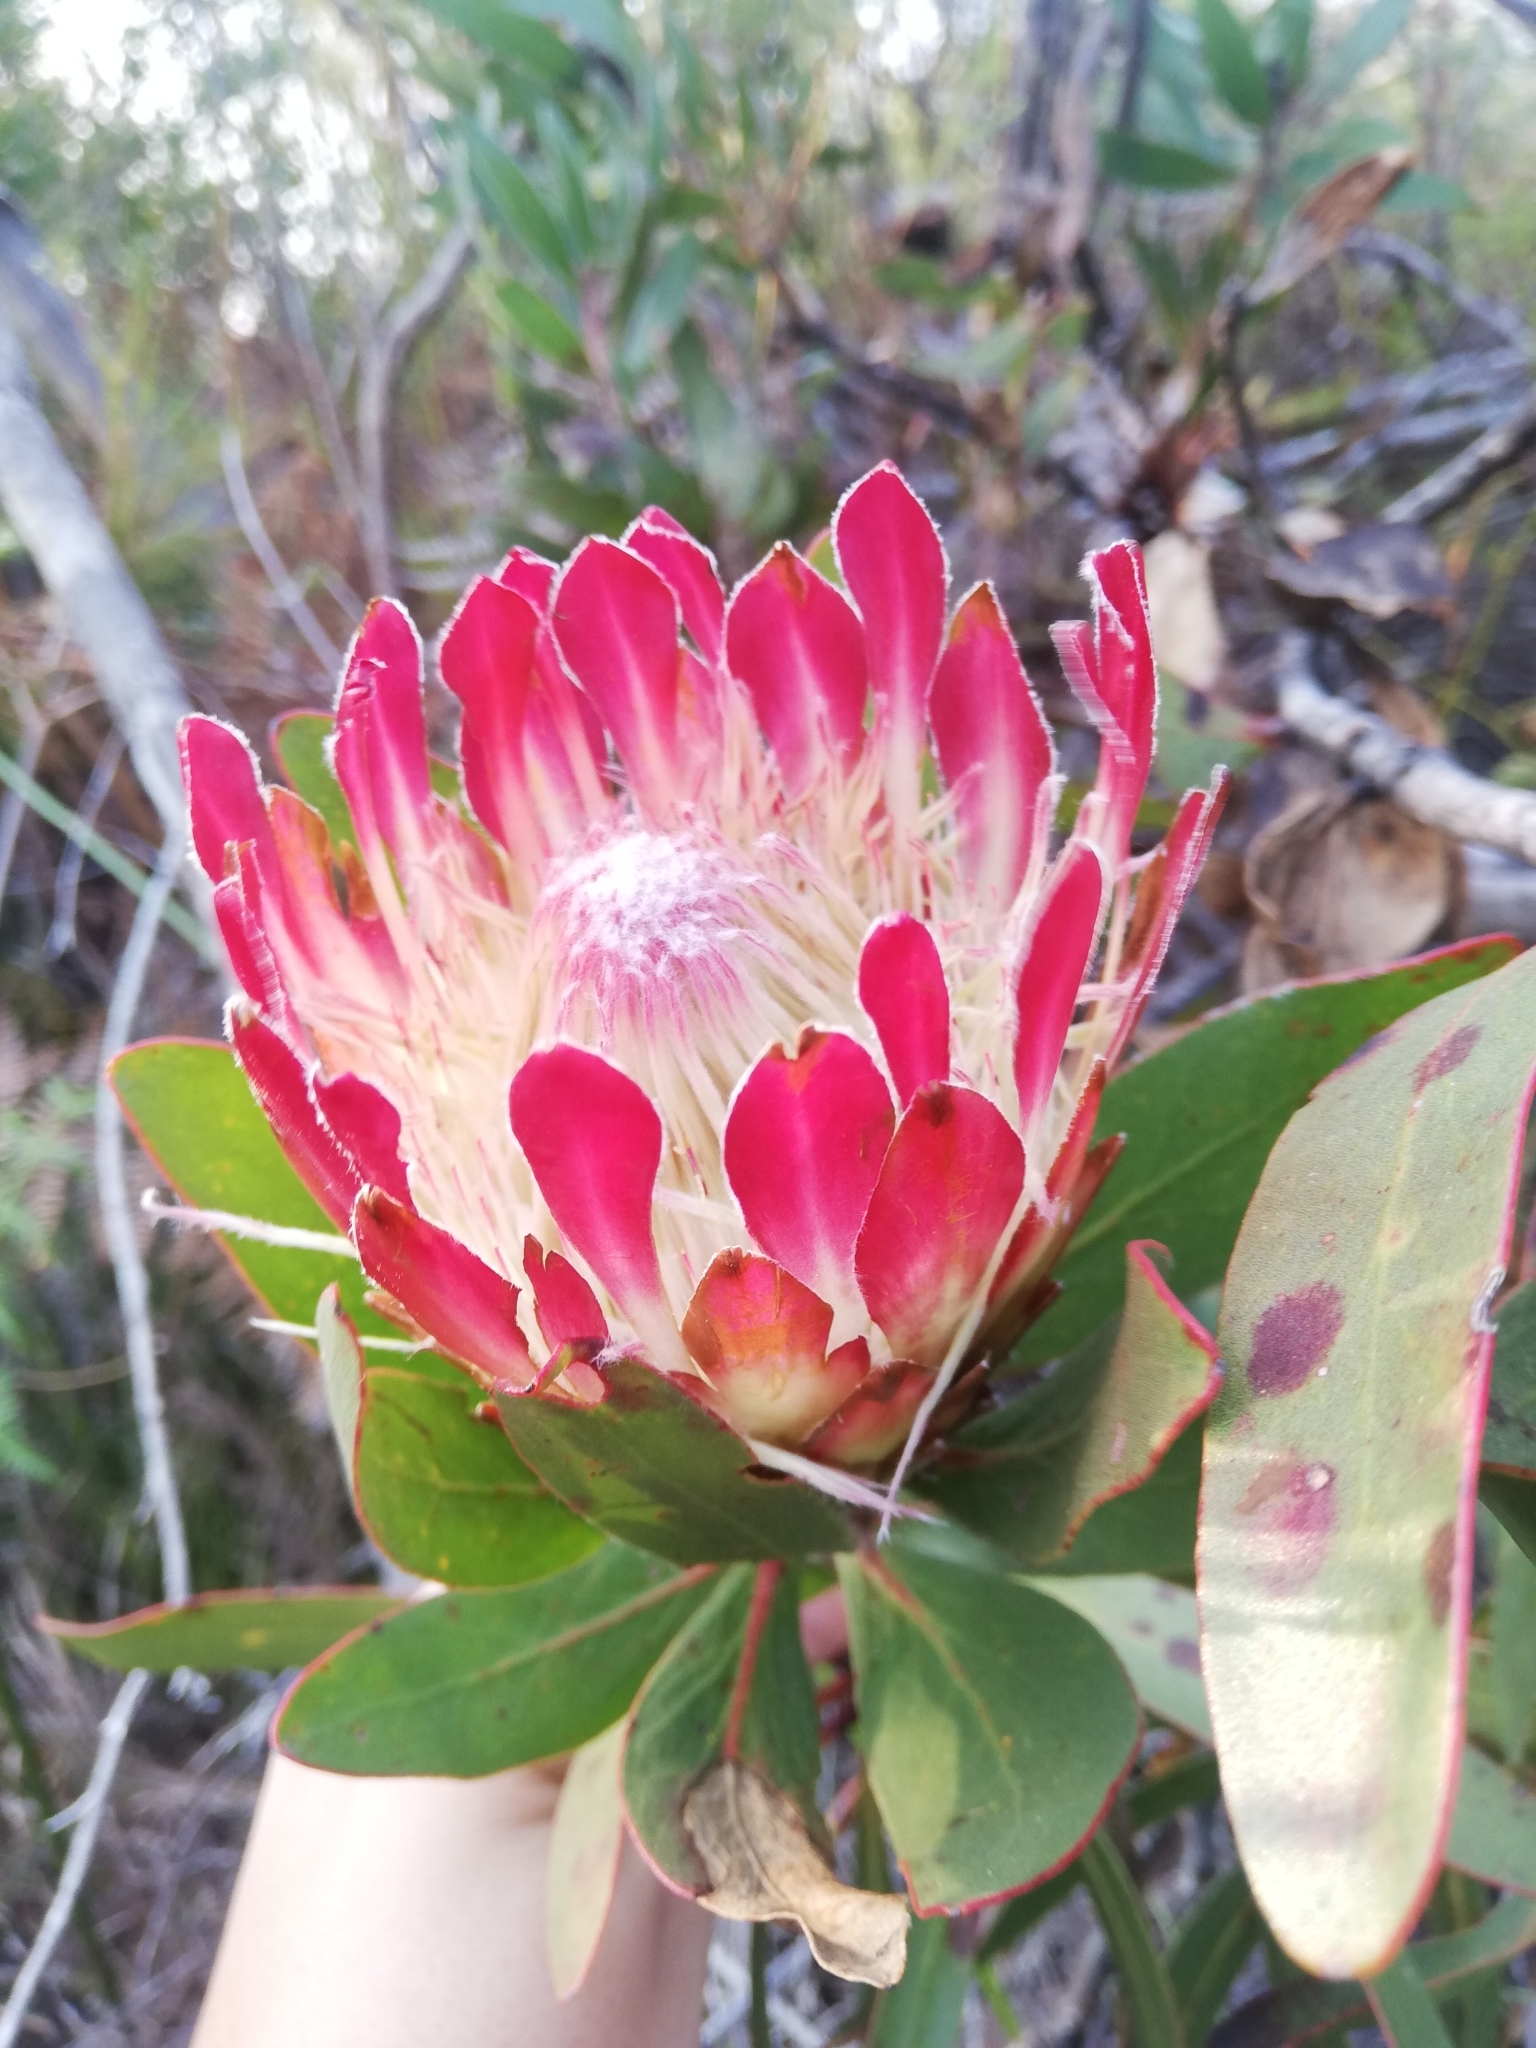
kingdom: Plantae
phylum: Tracheophyta
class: Magnoliopsida
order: Proteales
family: Proteaceae
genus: Protea
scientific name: Protea obtusifolia
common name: Bredasdorp sugarbush
